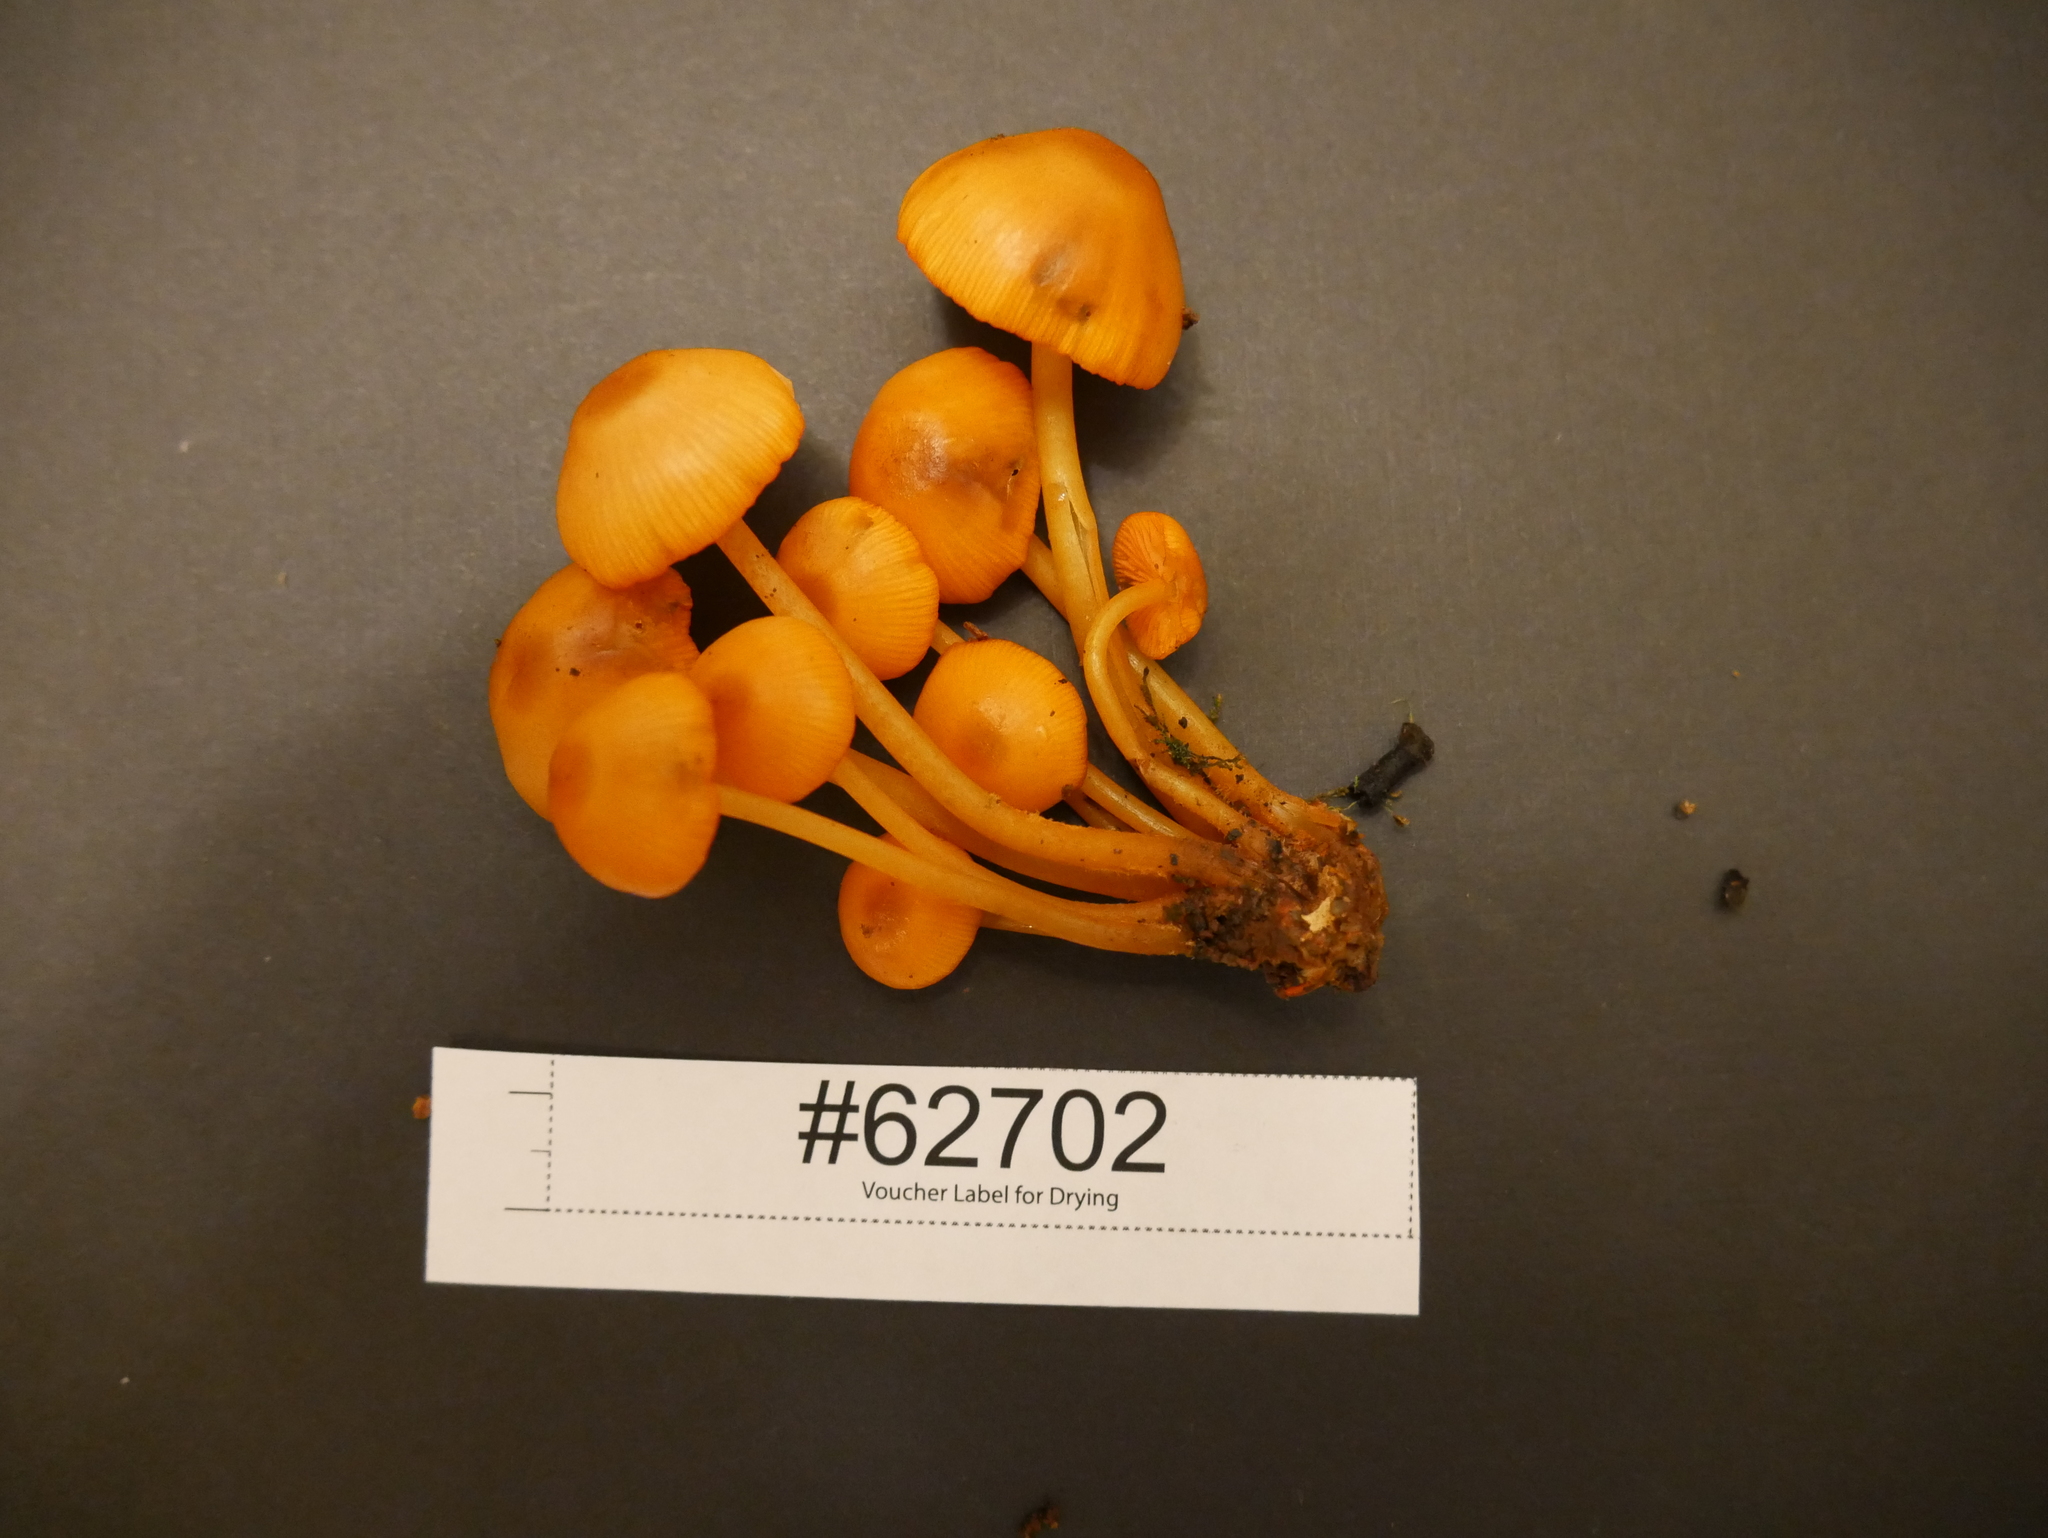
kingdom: Fungi
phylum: Basidiomycota
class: Agaricomycetes
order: Agaricales
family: Mycenaceae
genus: Mycena
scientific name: Mycena leaiana
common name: Orange mycena
